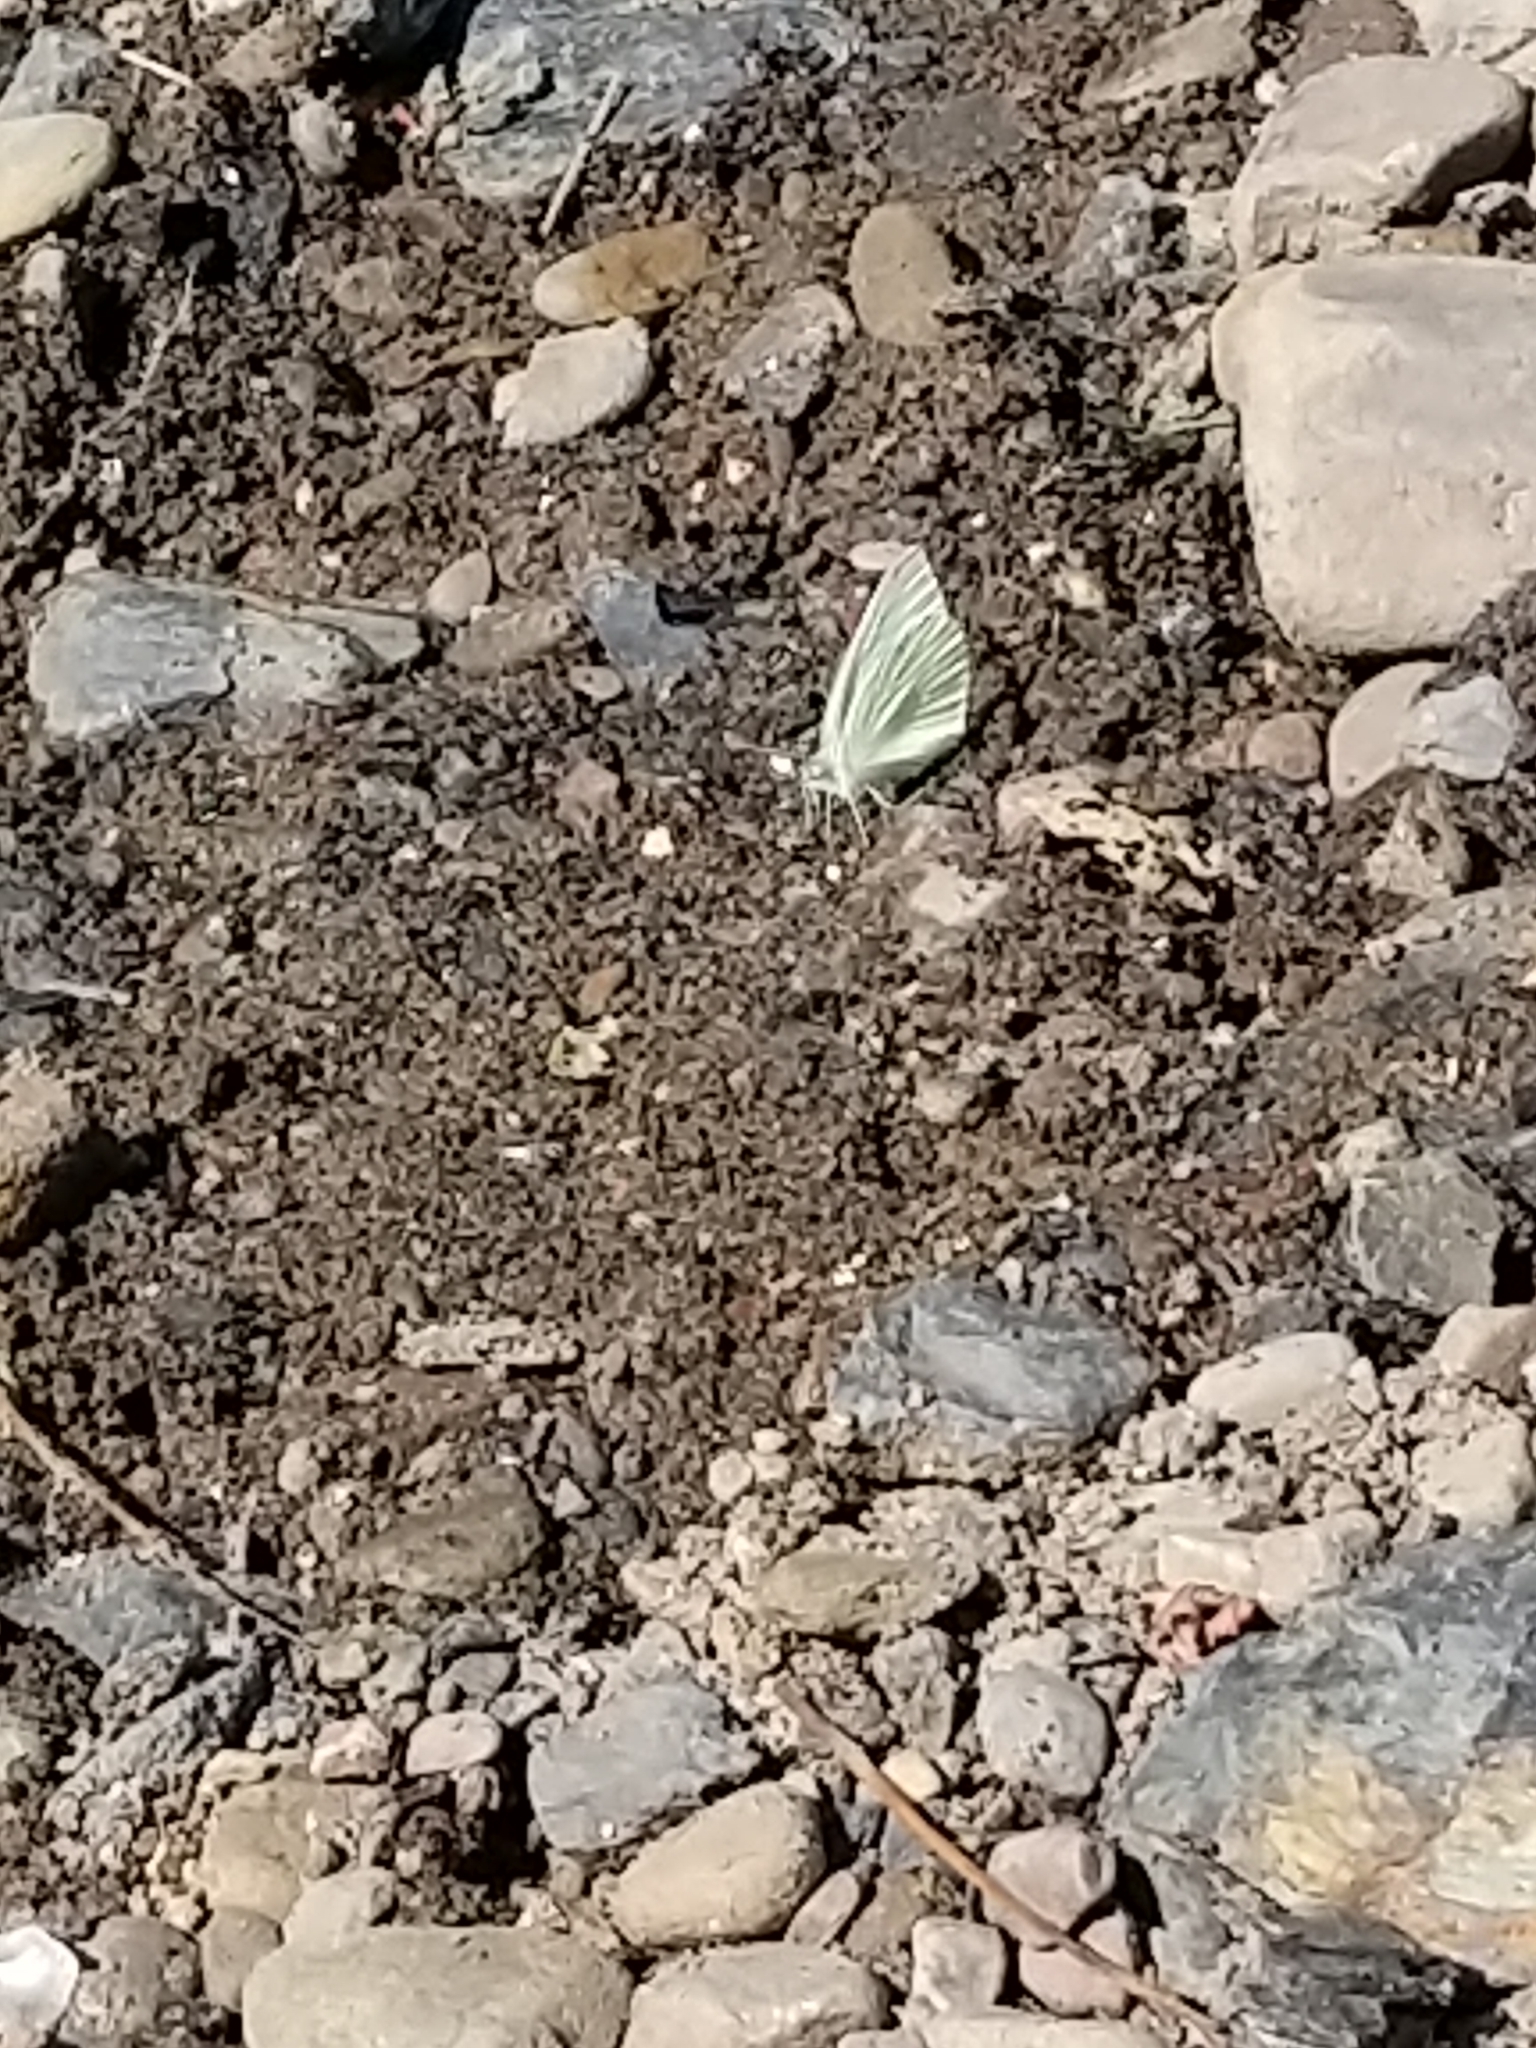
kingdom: Animalia
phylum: Arthropoda
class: Insecta
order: Lepidoptera
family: Pieridae
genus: Pieris
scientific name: Pieris rapae
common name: Small white
